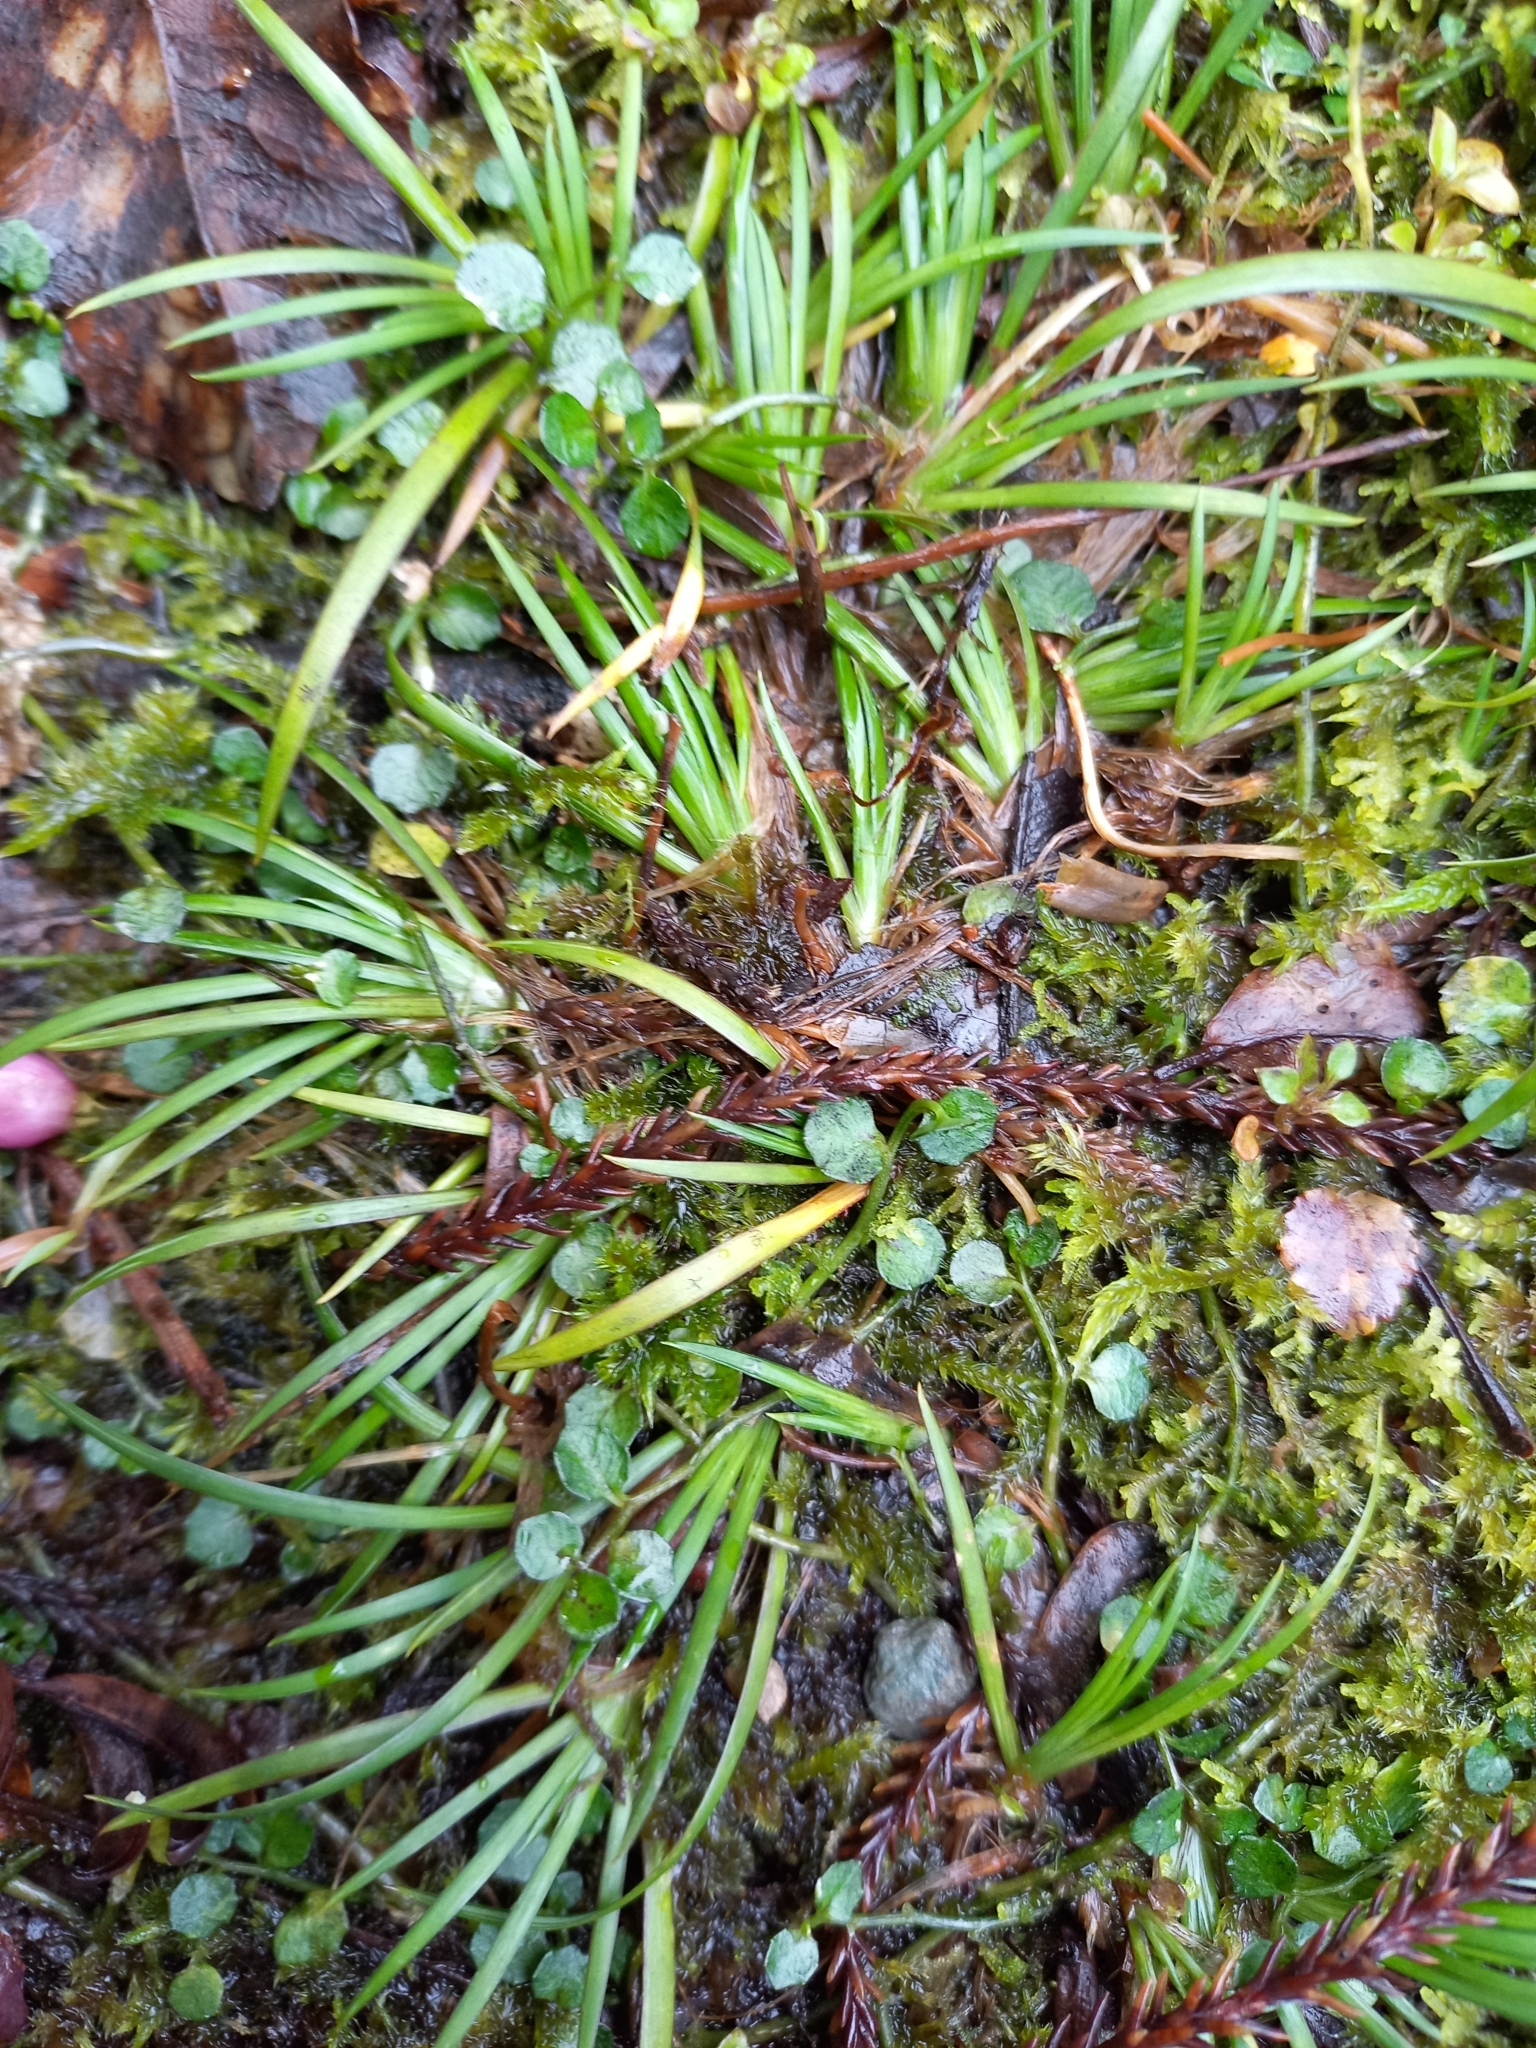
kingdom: Plantae
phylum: Tracheophyta
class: Liliopsida
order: Asparagales
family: Iridaceae
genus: Libertia
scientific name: Libertia micrantha
